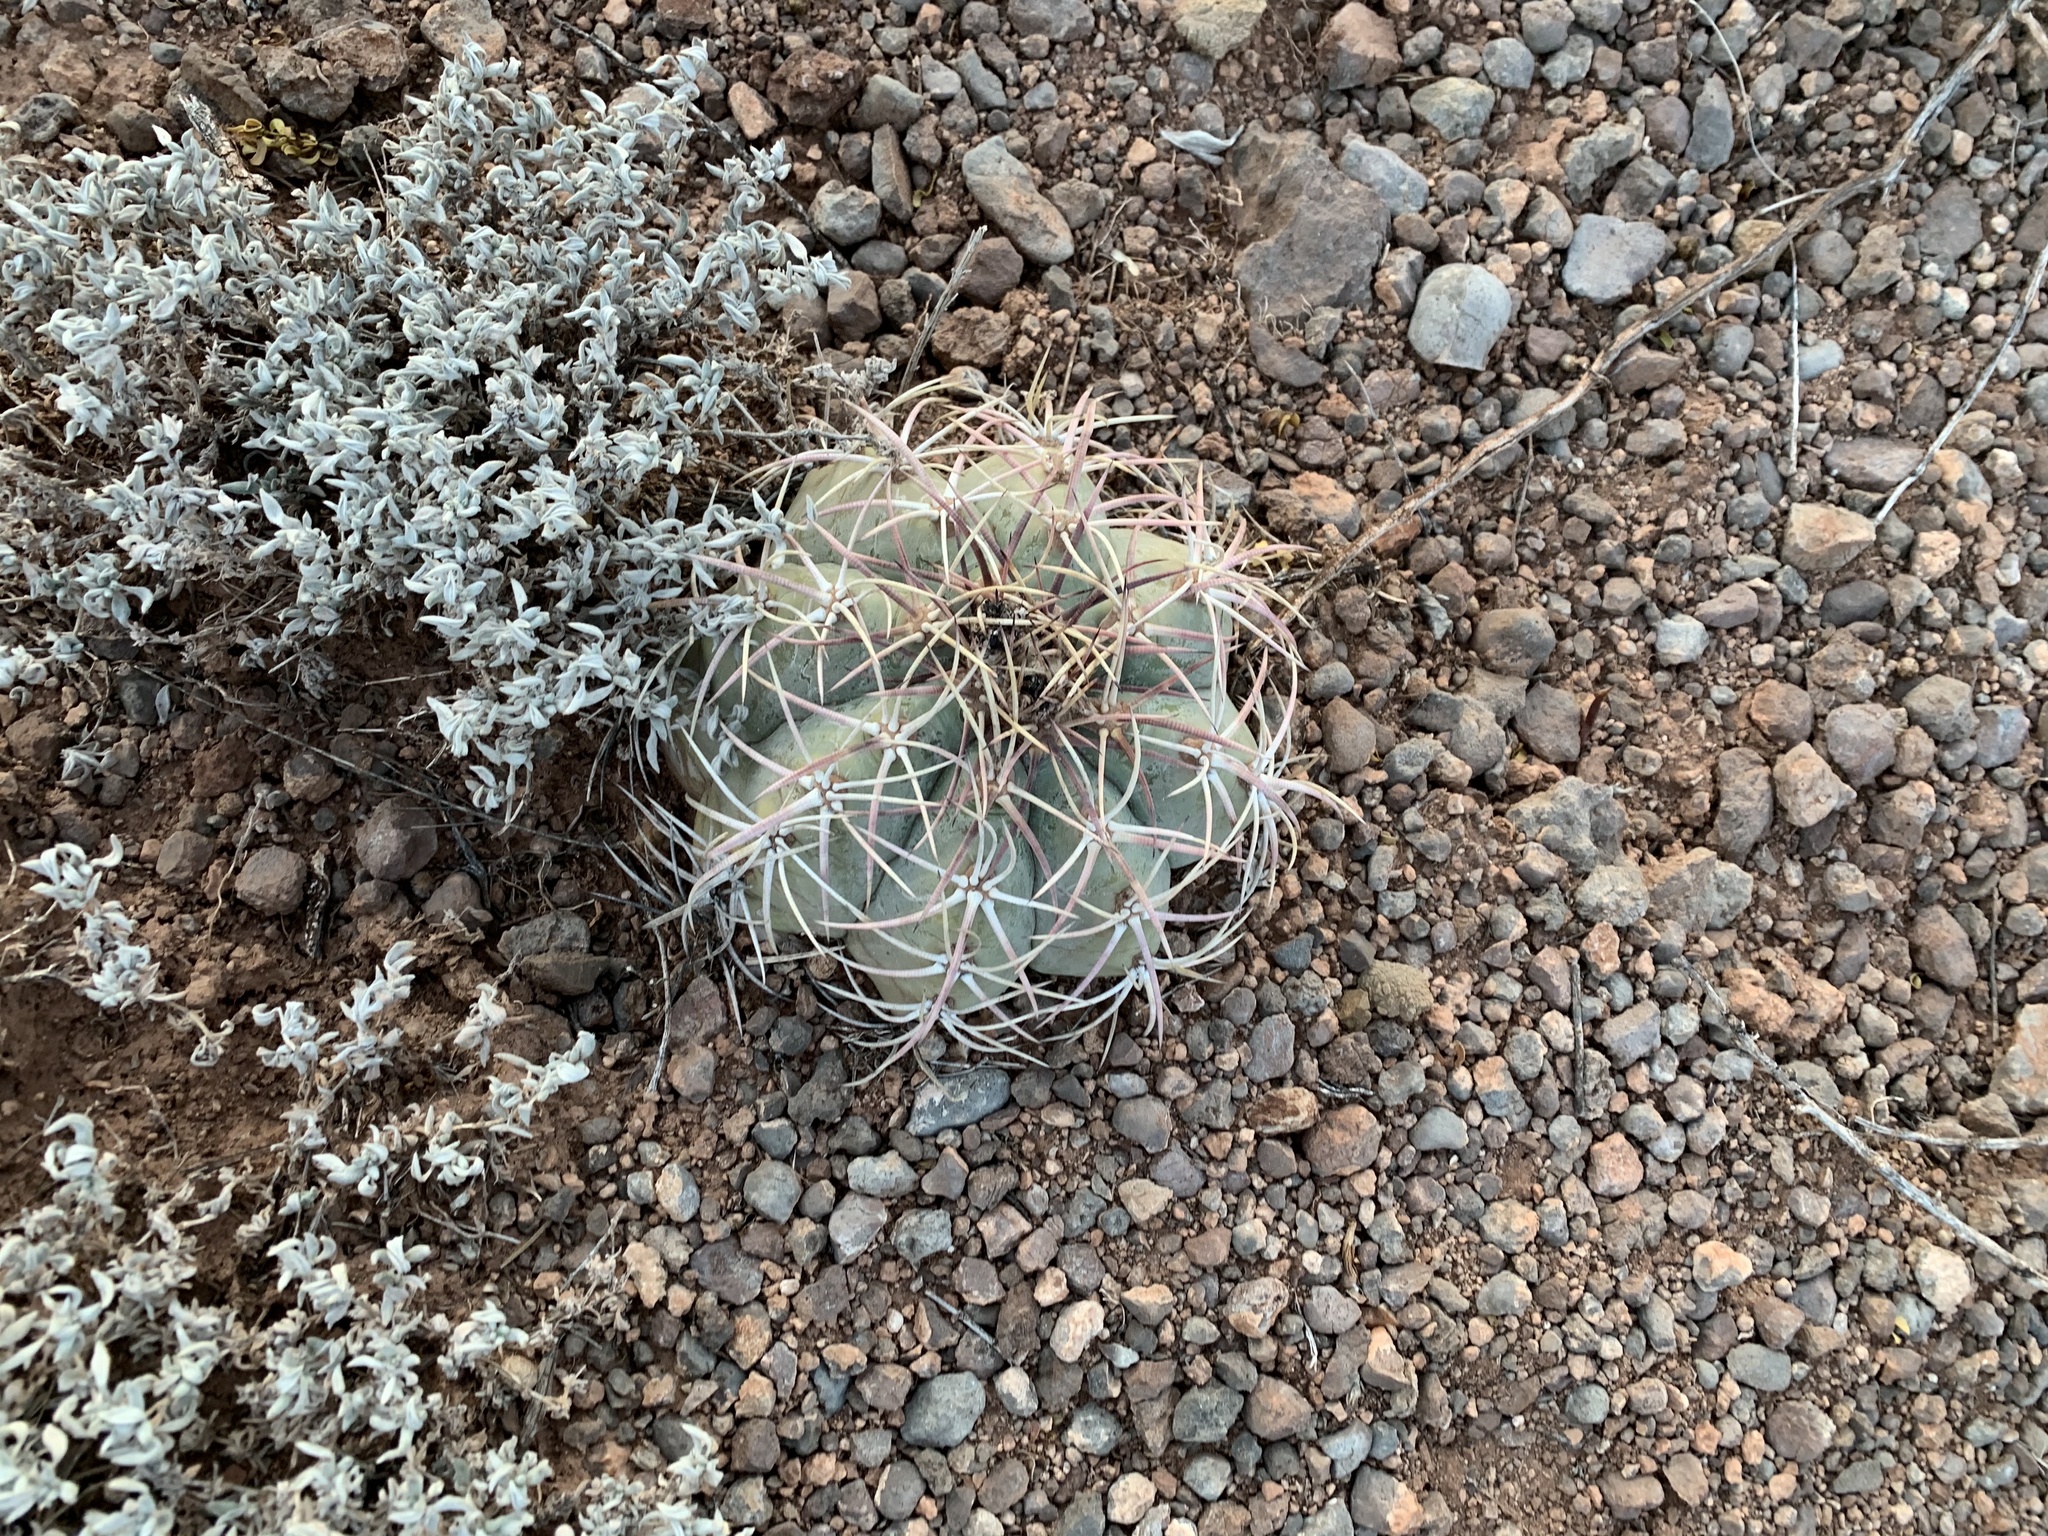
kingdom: Plantae
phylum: Tracheophyta
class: Magnoliopsida
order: Caryophyllales
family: Cactaceae
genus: Echinocactus
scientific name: Echinocactus horizonthalonius
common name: Devilshead
